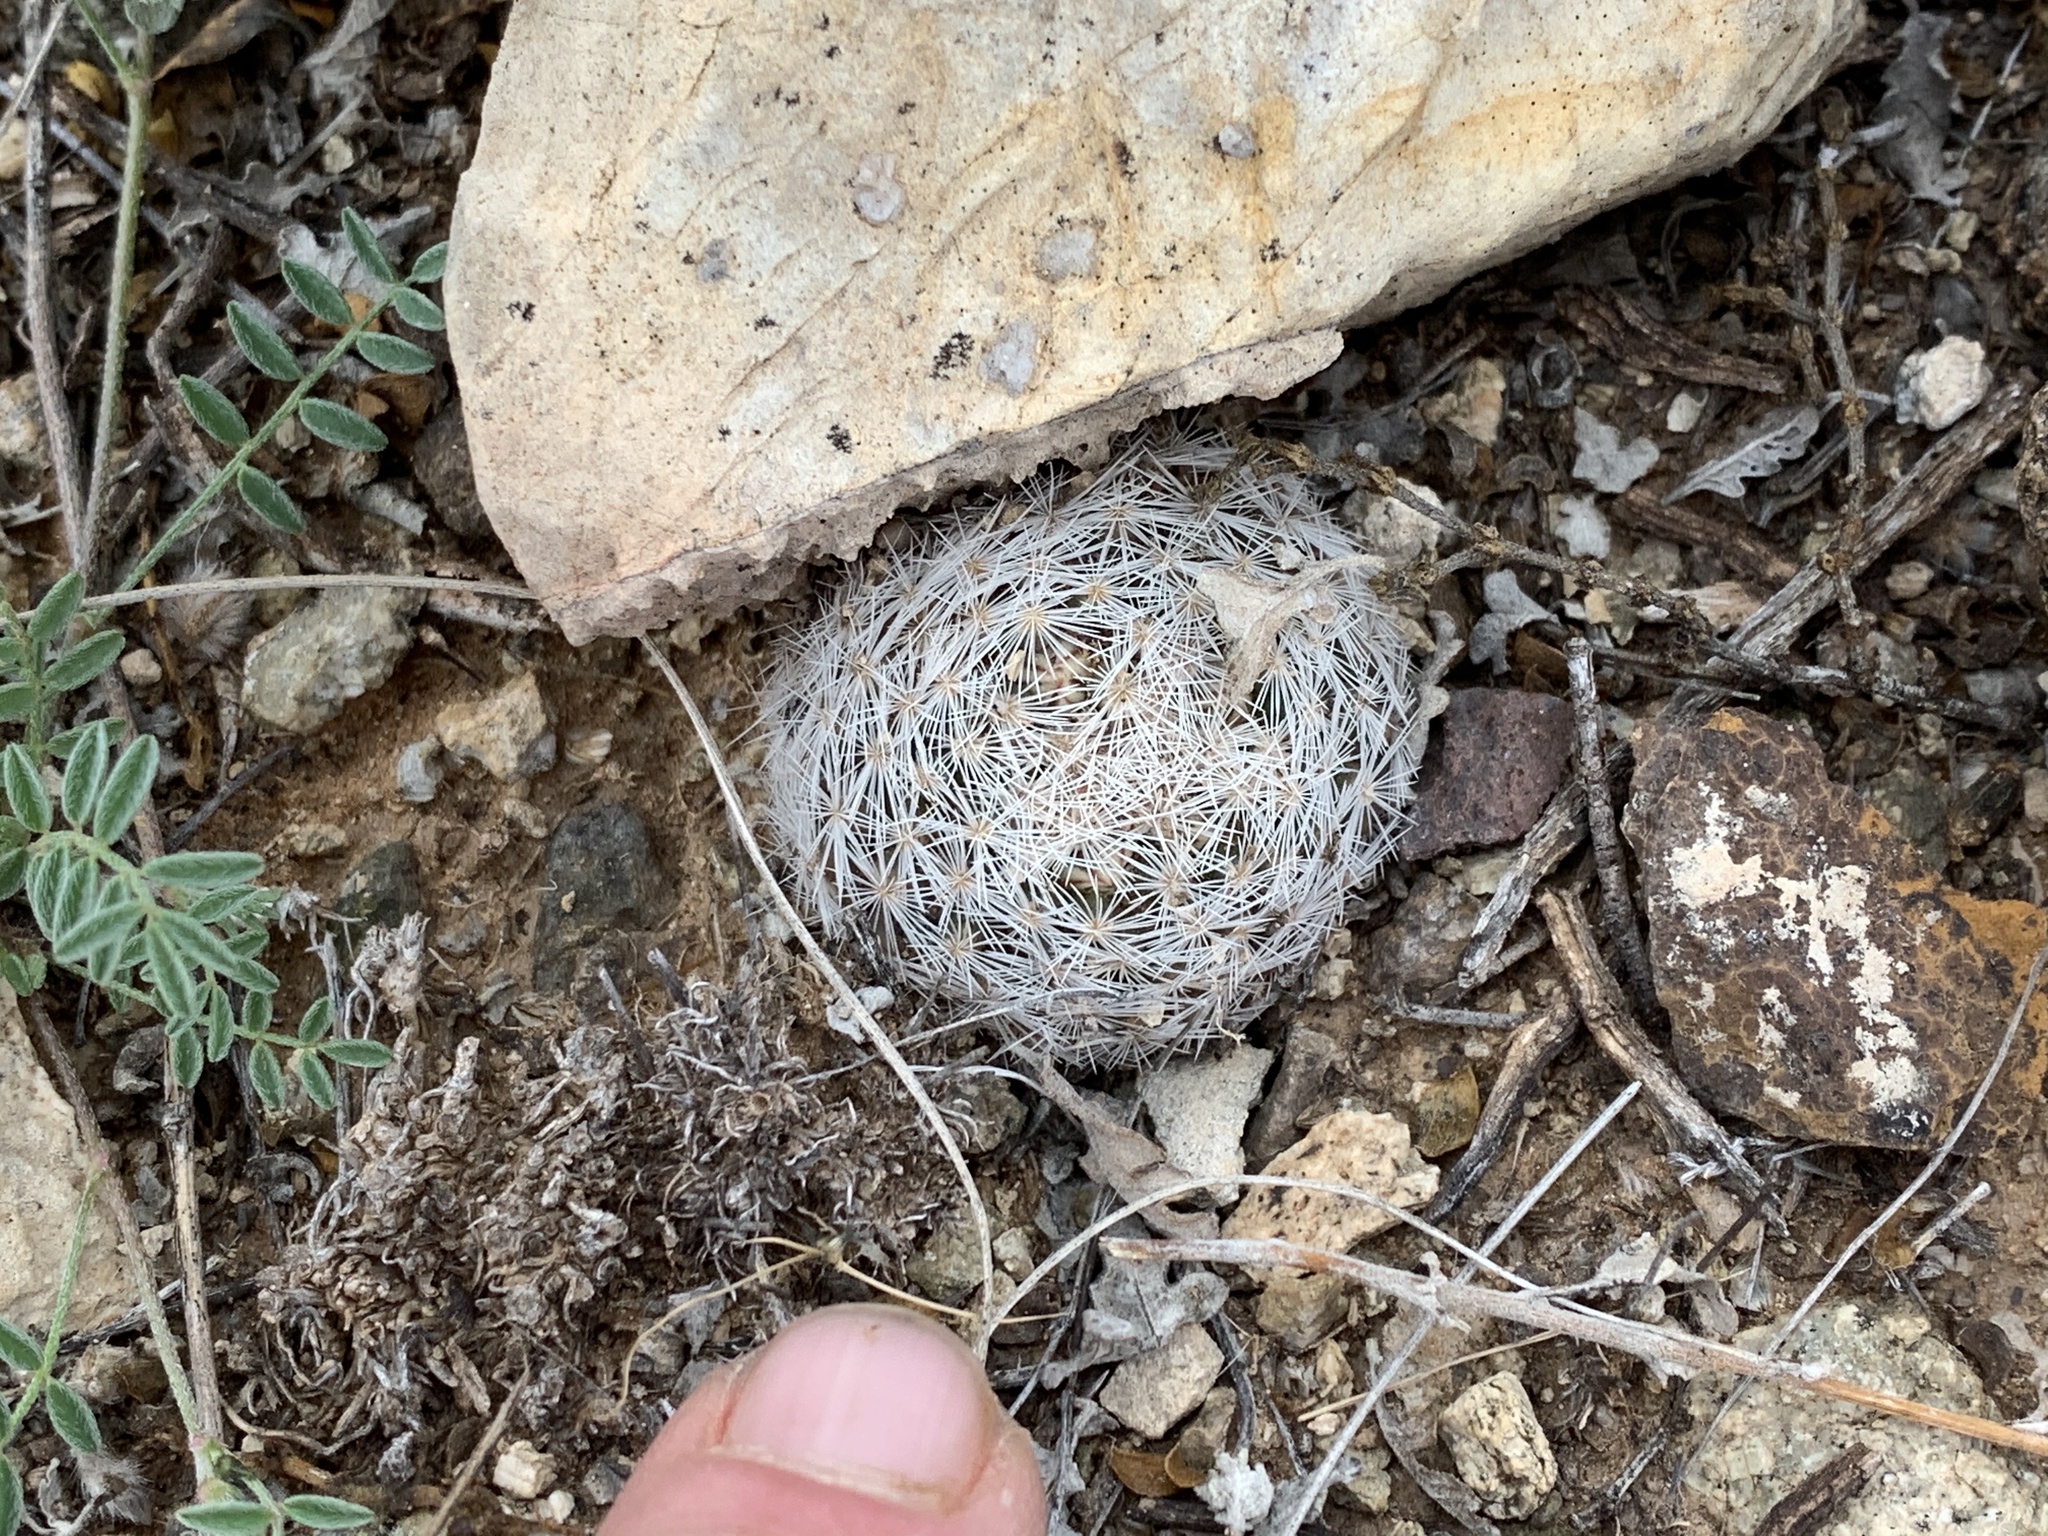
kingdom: Plantae
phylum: Tracheophyta
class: Magnoliopsida
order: Caryophyllales
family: Cactaceae
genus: Mammillaria
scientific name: Mammillaria lasiacantha
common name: Lace-spine nipple cactus
